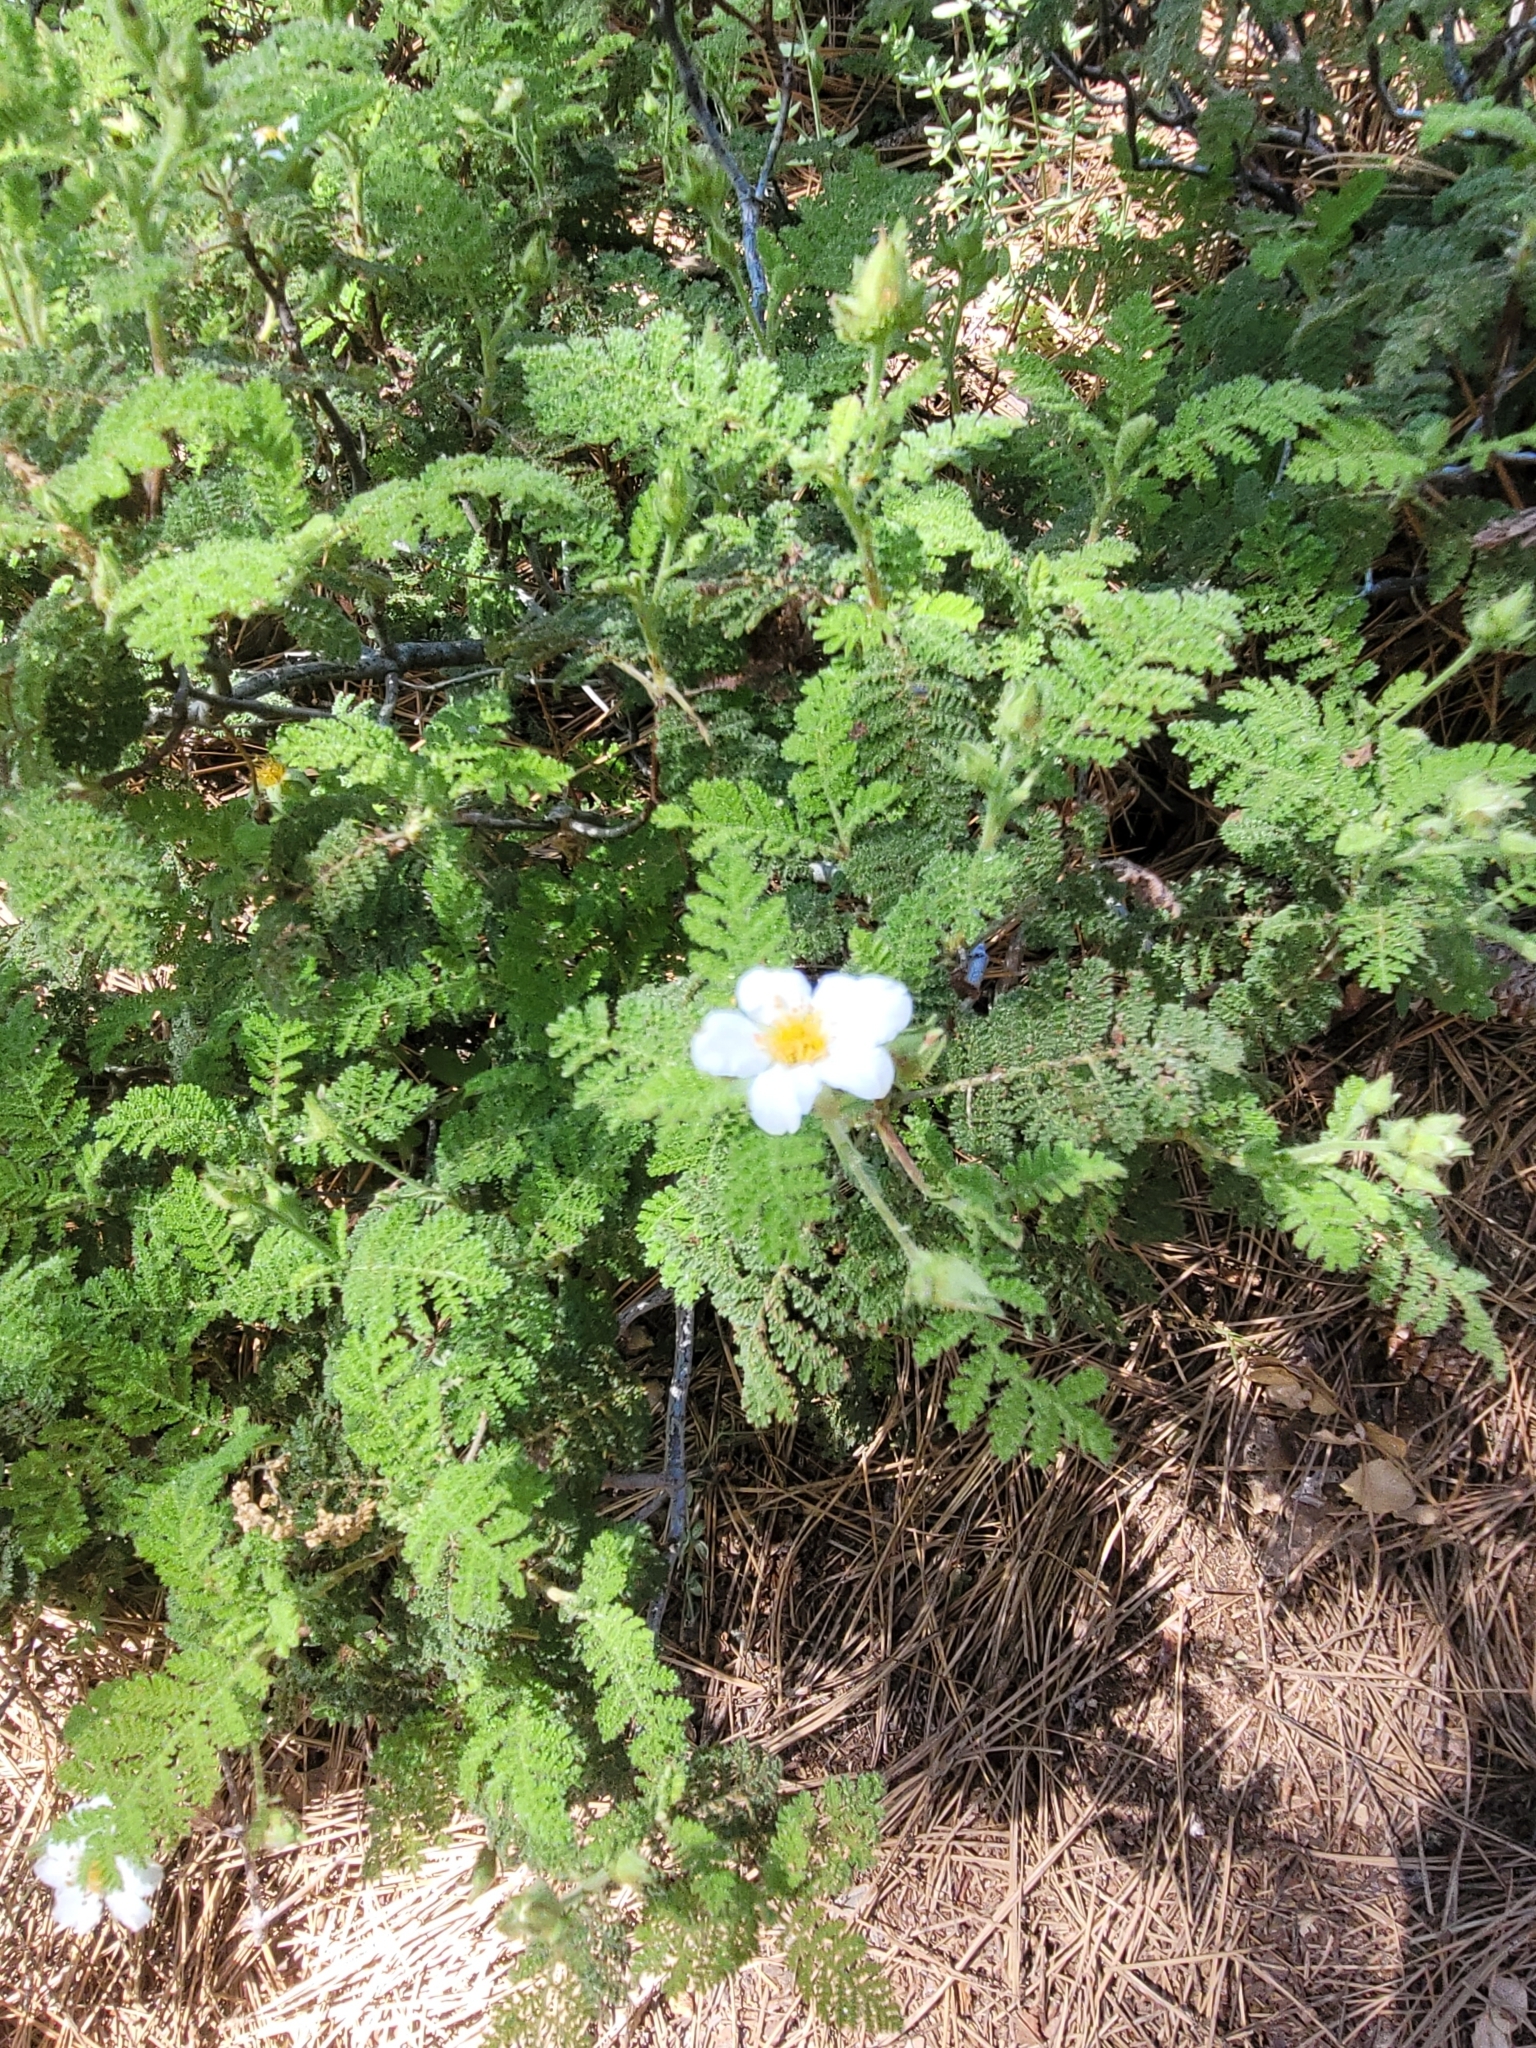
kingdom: Plantae
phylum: Tracheophyta
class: Magnoliopsida
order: Rosales
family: Rosaceae
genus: Chamaebatia
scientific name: Chamaebatia foliolosa
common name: Mountain misery
